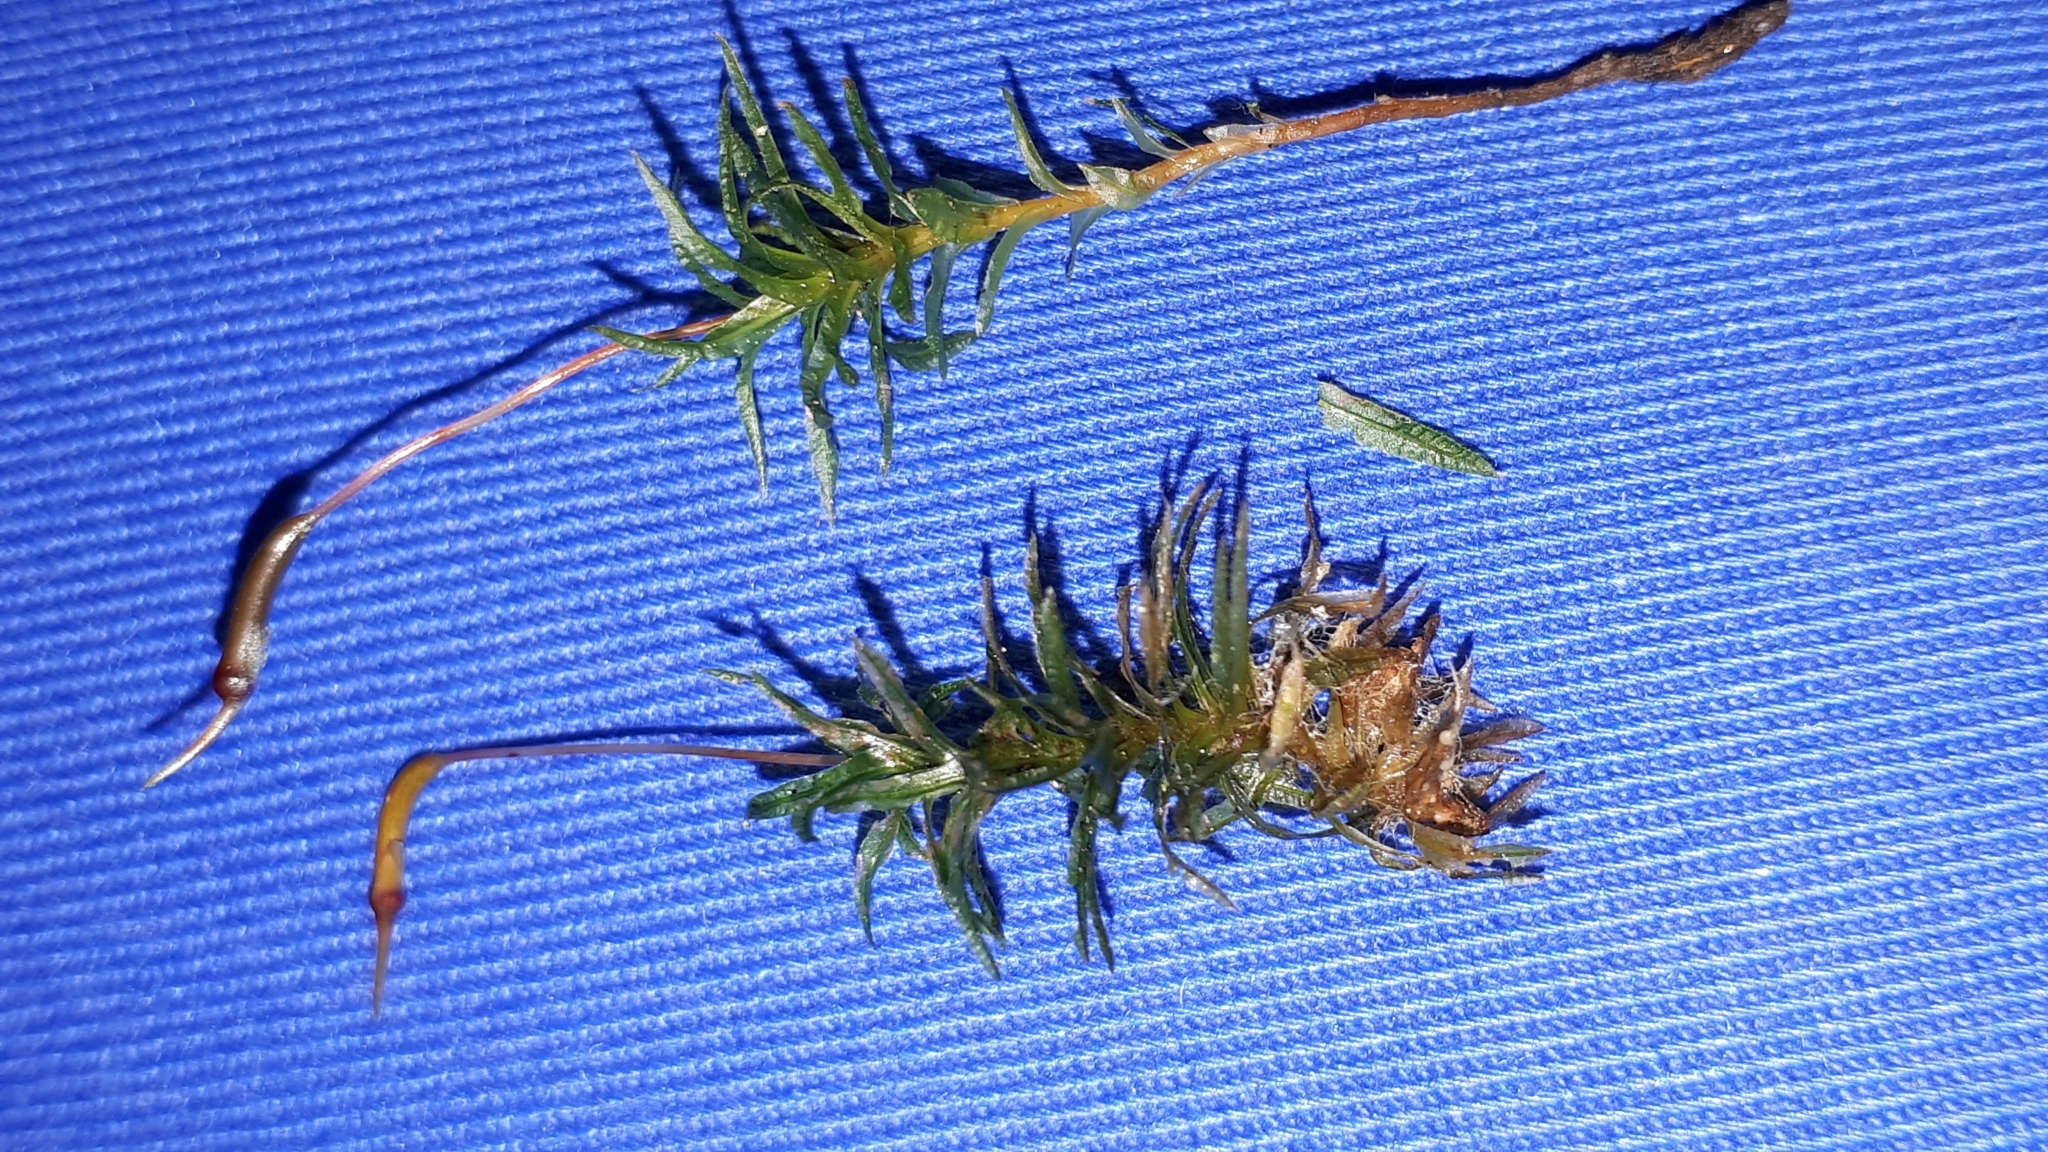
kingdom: Plantae
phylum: Bryophyta
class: Polytrichopsida
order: Polytrichales
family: Polytrichaceae
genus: Atrichum
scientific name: Atrichum undulatum
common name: Common smoothcap
